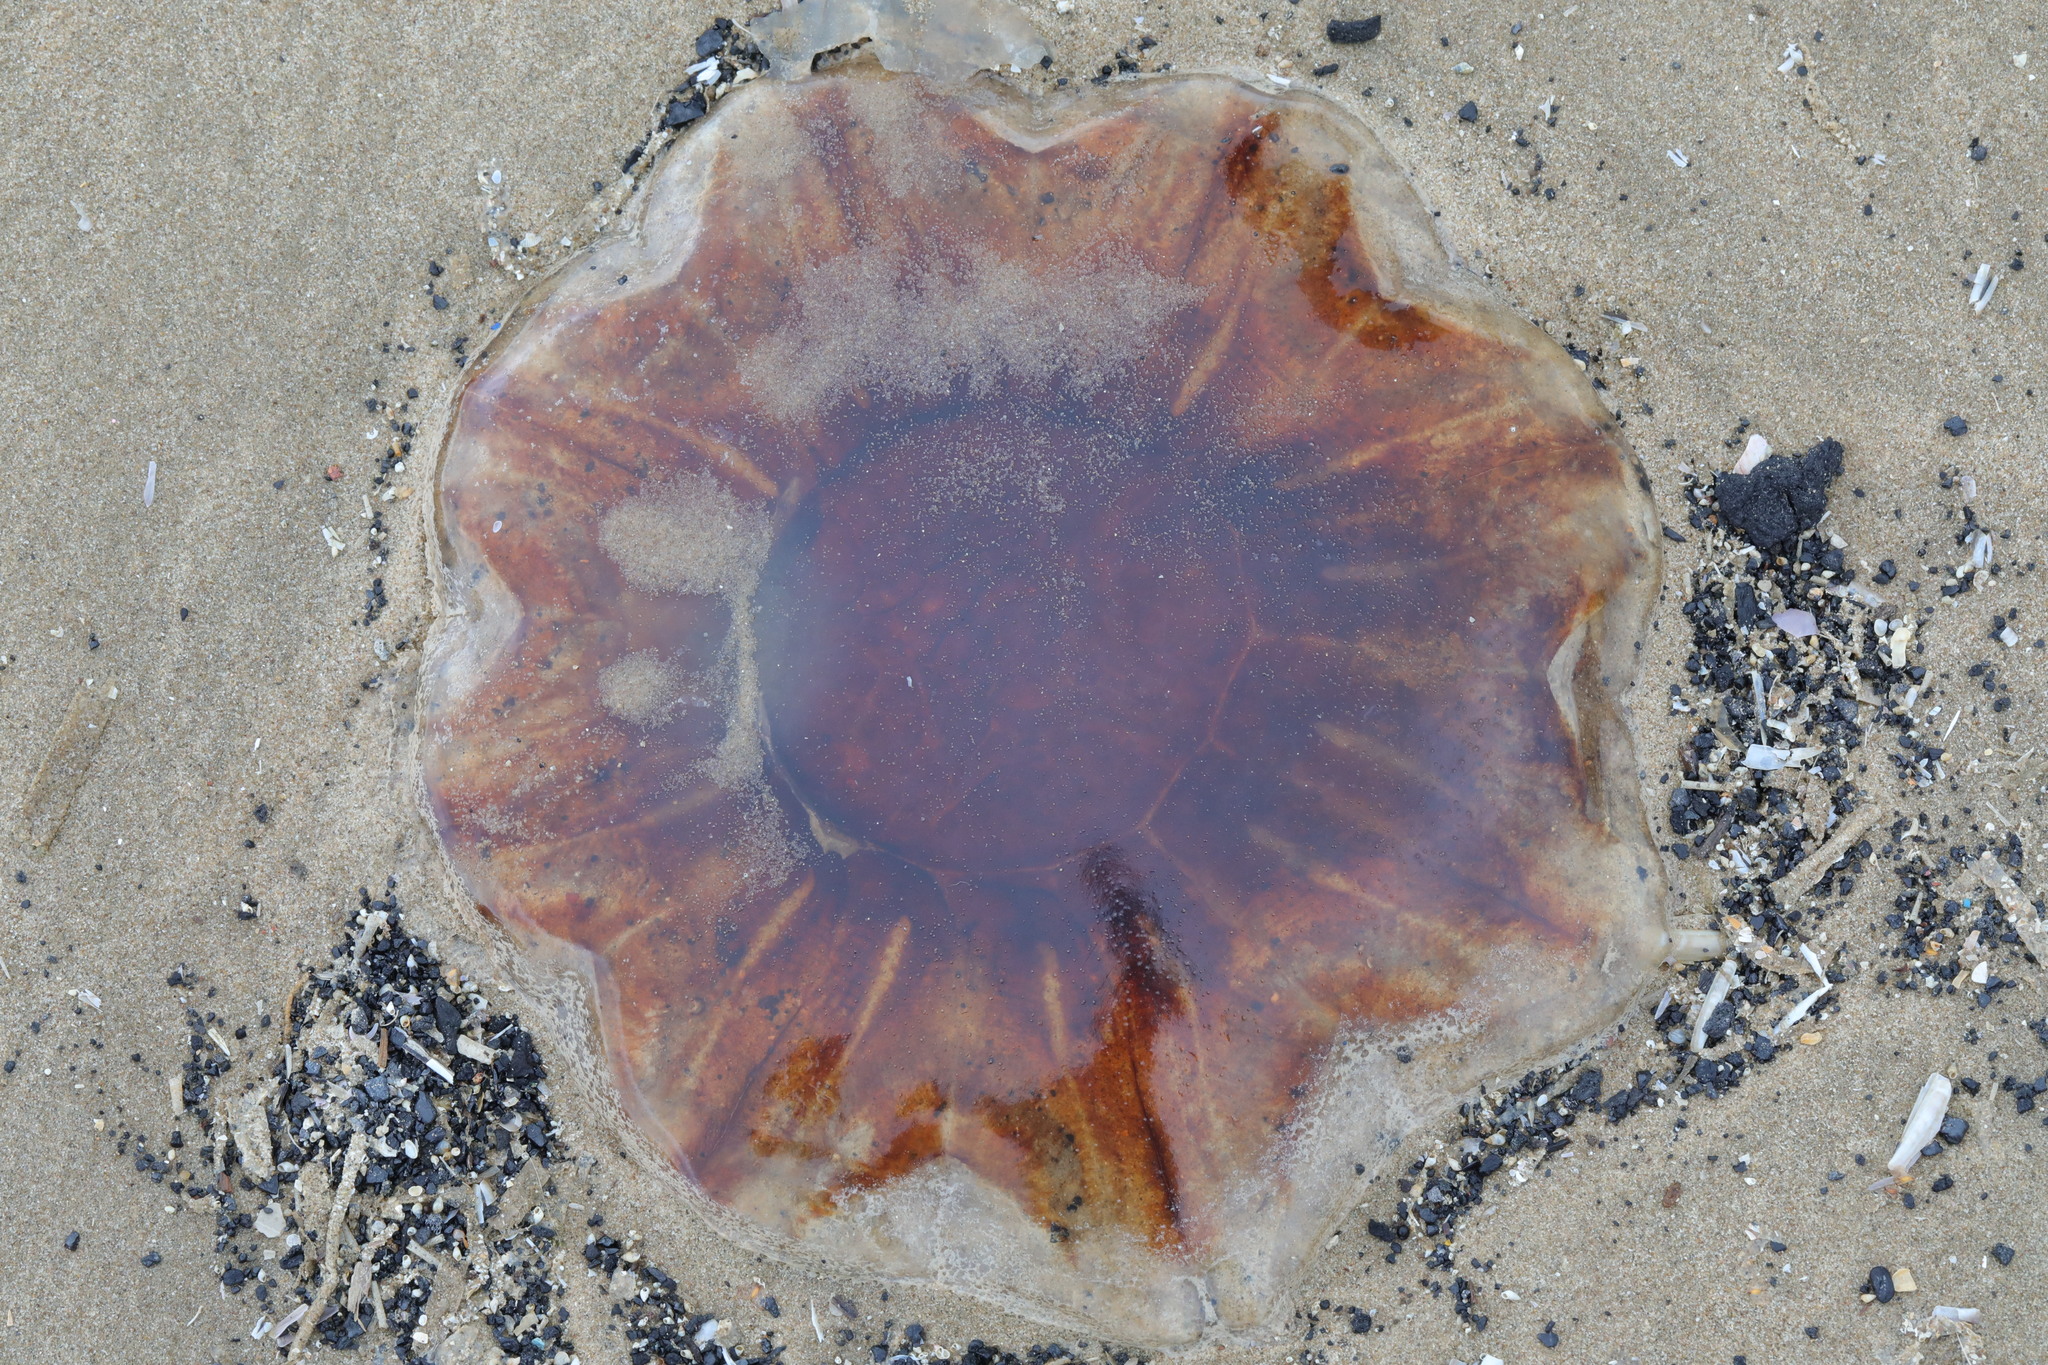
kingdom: Animalia
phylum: Cnidaria
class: Scyphozoa
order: Semaeostomeae
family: Cyaneidae
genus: Cyanea
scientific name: Cyanea capillata
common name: Lion's mane jellyfish
